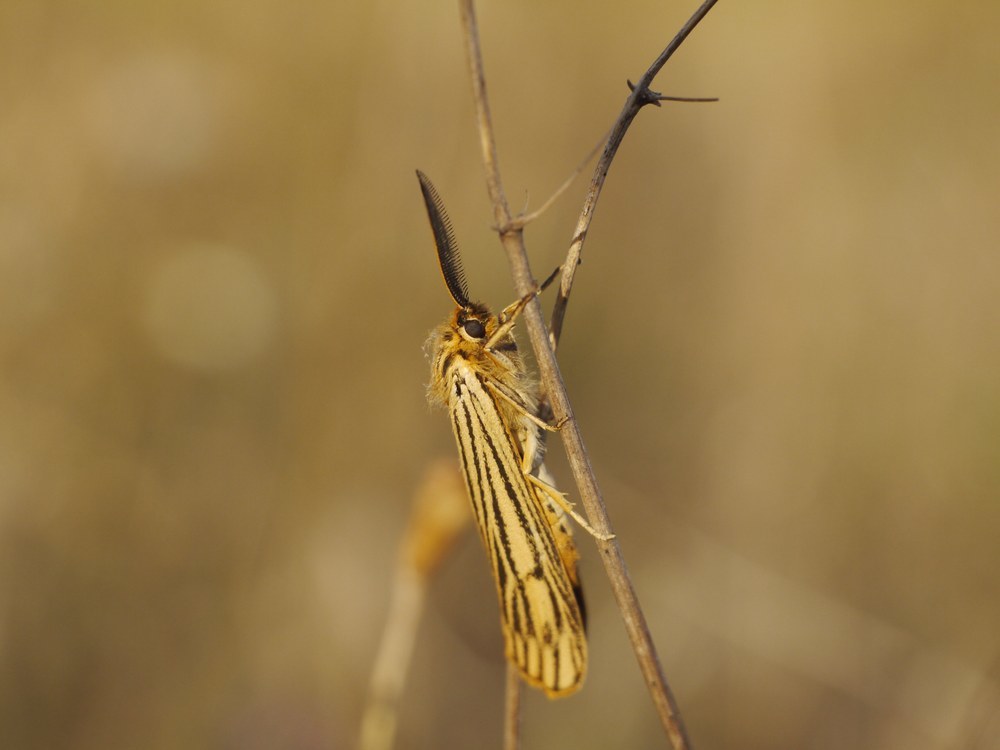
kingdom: Animalia
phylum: Arthropoda
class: Insecta
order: Lepidoptera
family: Erebidae
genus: Coscinia
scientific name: Coscinia Spiris striata
